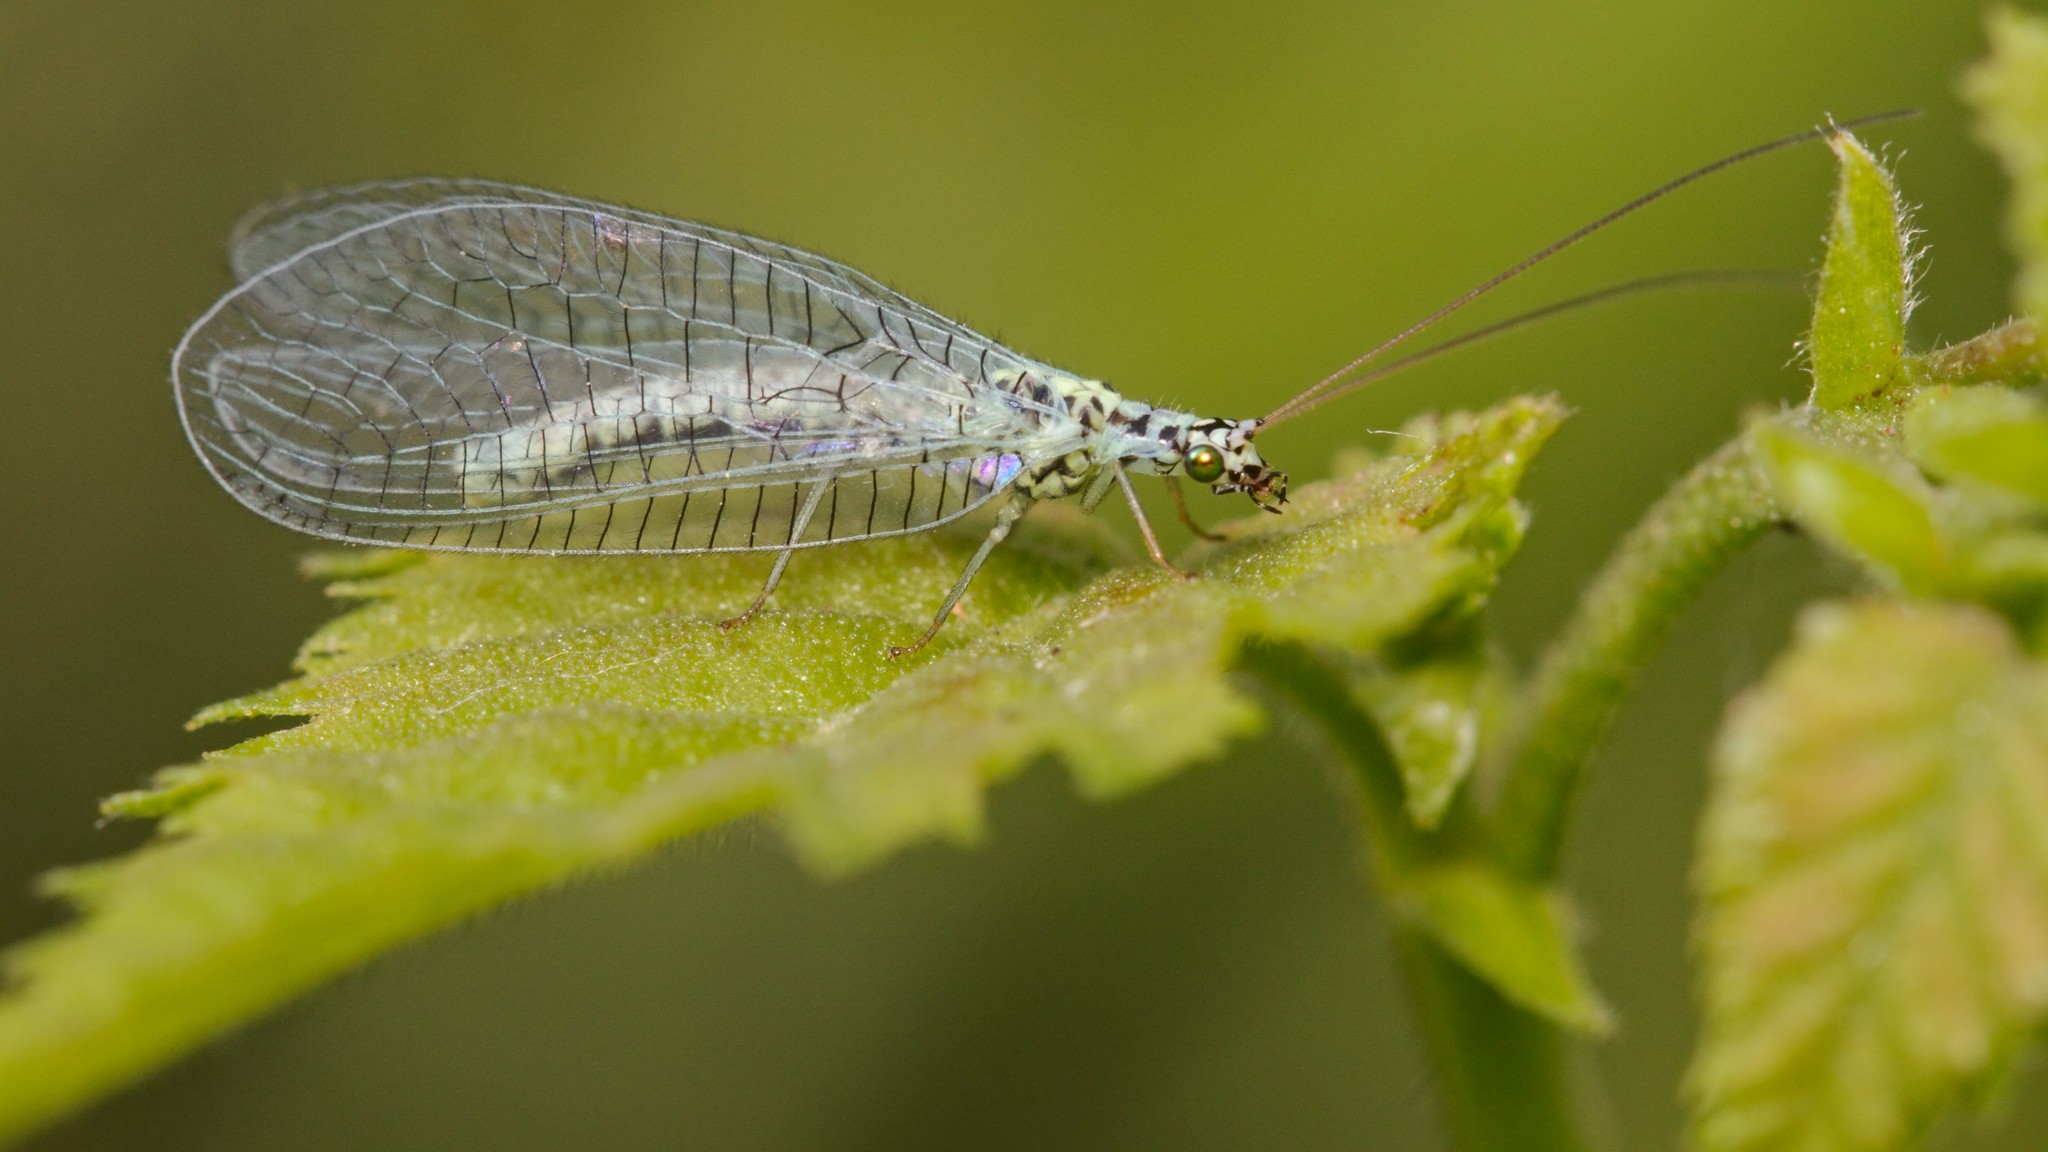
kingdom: Animalia
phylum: Arthropoda
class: Insecta
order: Neuroptera
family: Chrysopidae
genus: Chrysopa
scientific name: Chrysopa perla
